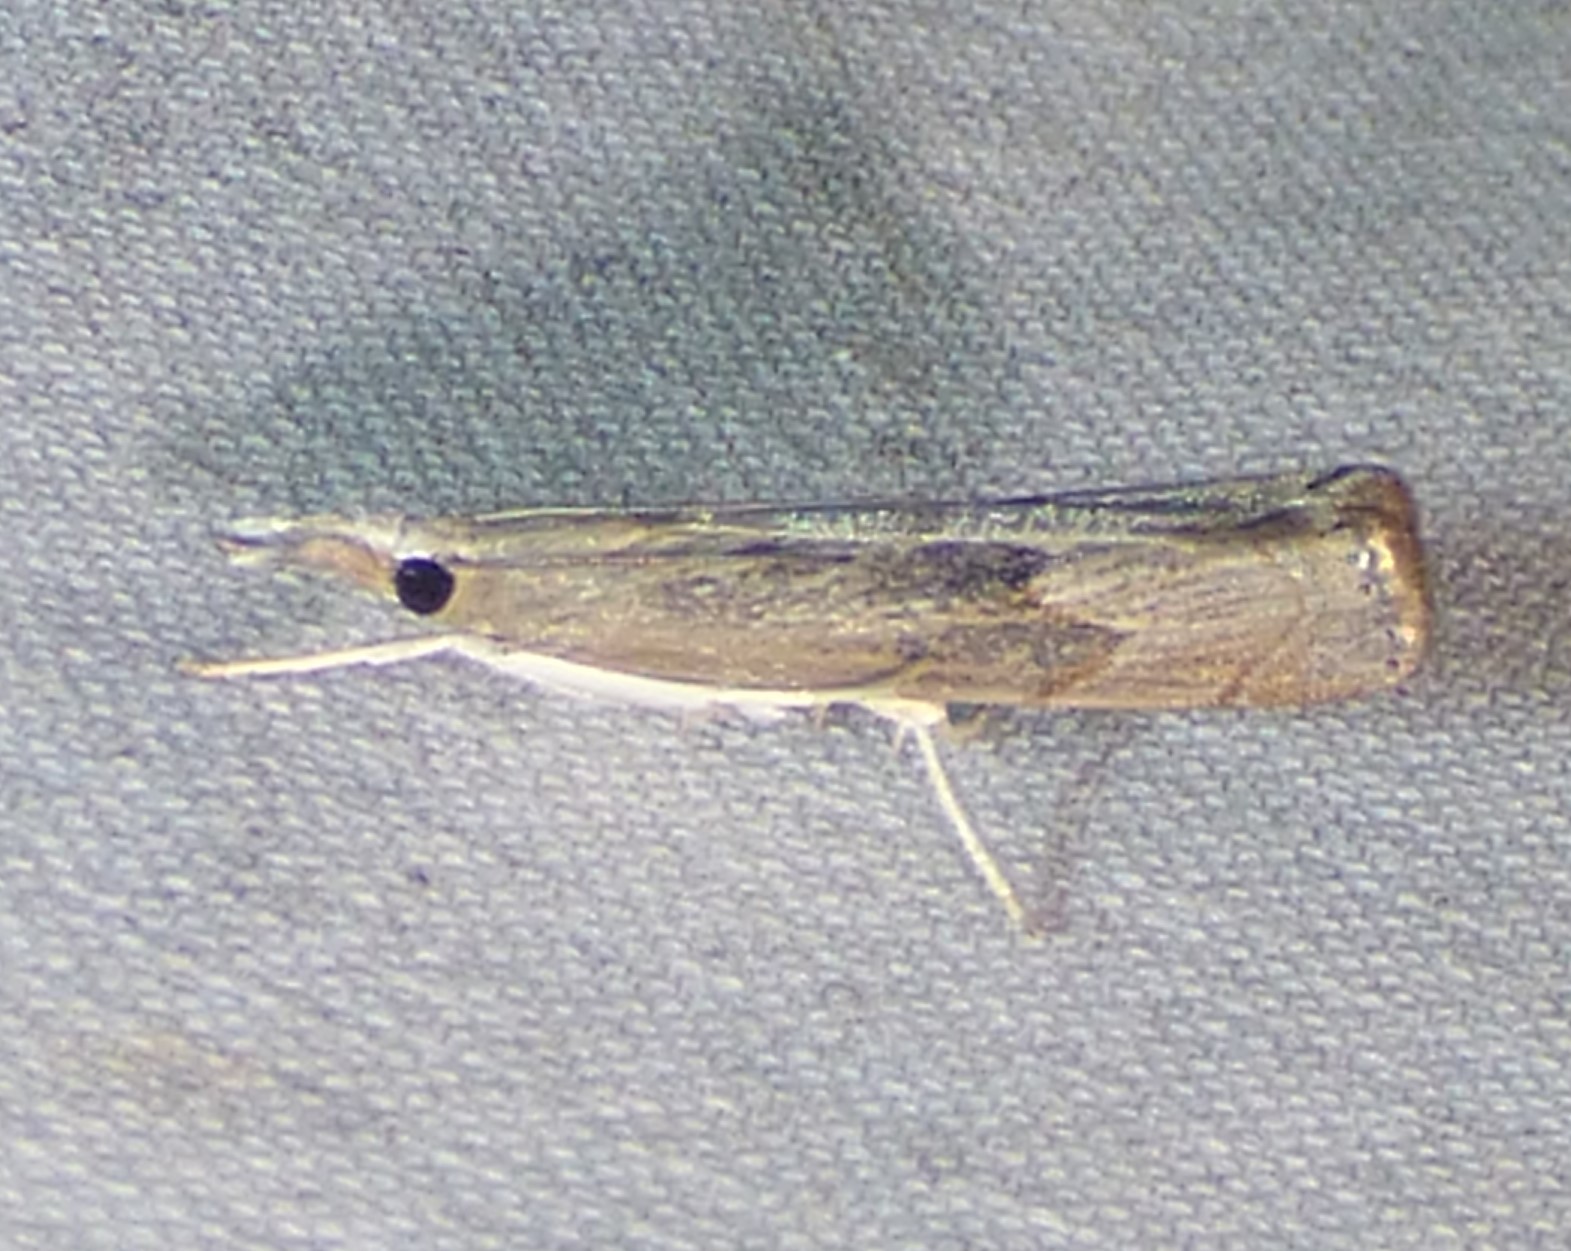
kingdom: Animalia
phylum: Arthropoda
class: Insecta
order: Lepidoptera
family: Crambidae
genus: Parapediasia
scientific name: Parapediasia teterellus
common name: Bluegrass webworm moth
